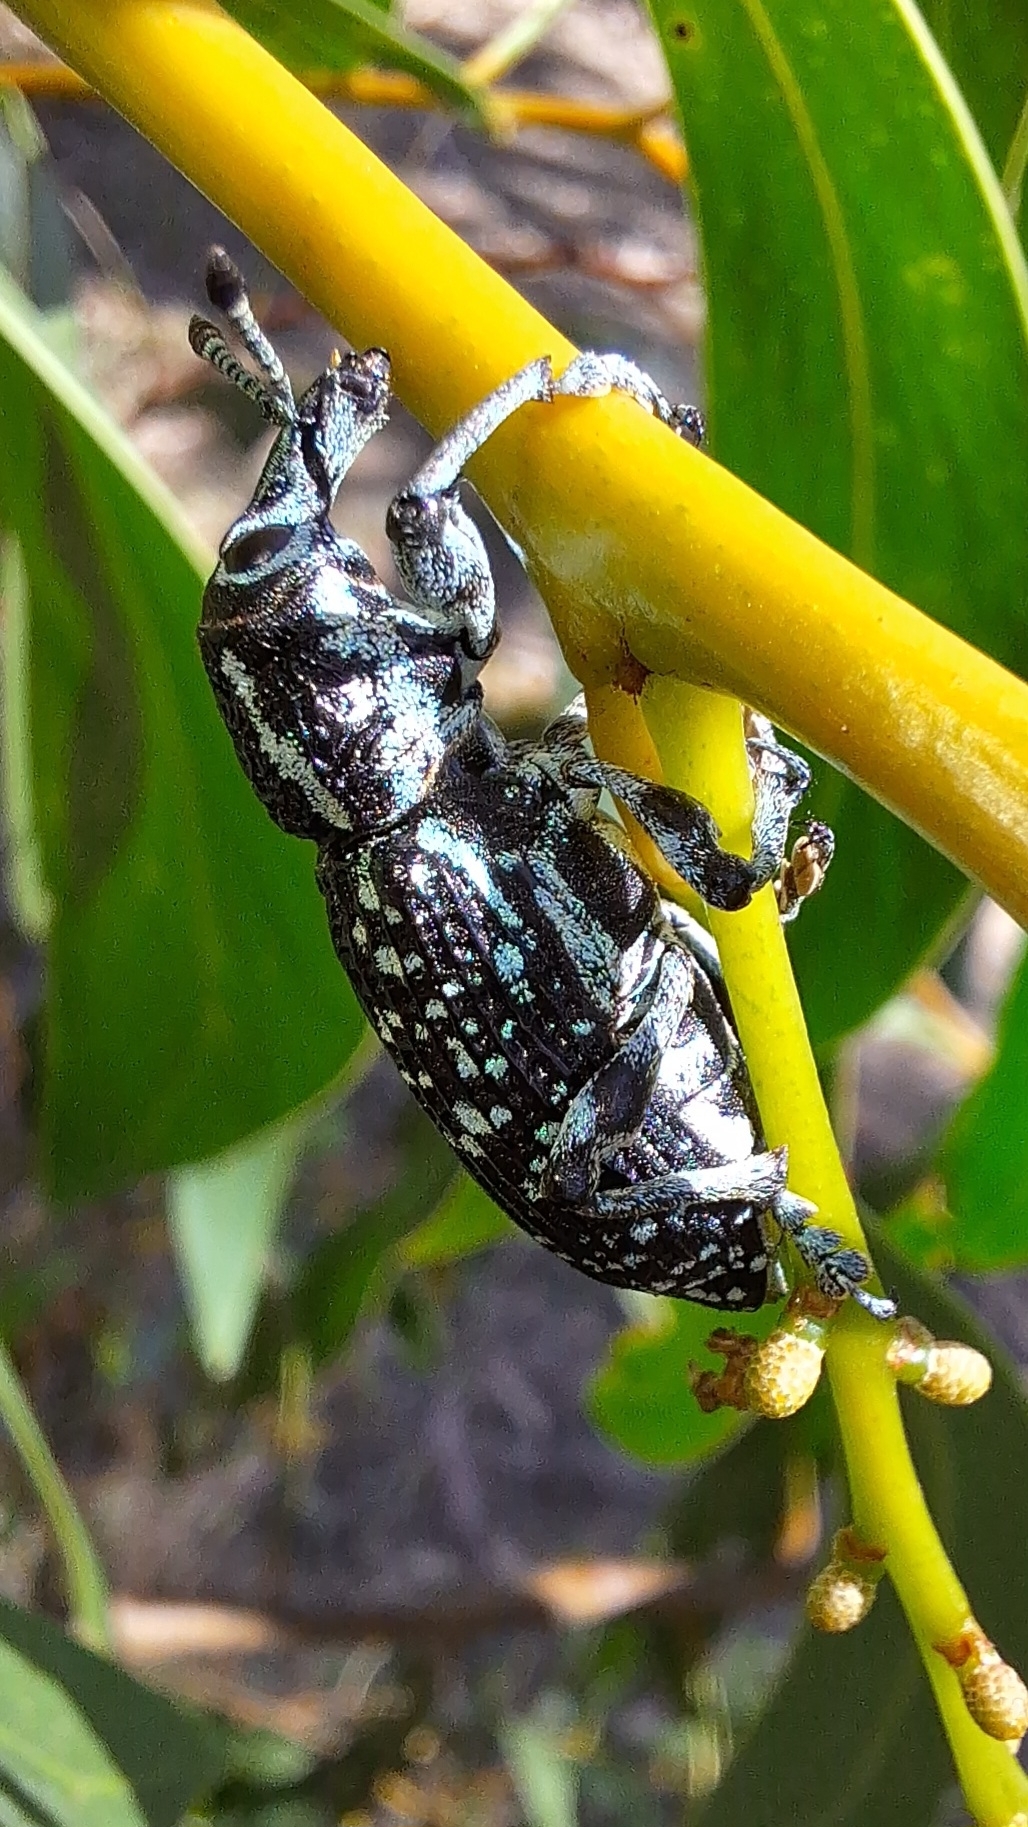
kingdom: Animalia
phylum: Arthropoda
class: Insecta
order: Coleoptera
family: Curculionidae
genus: Chrysolopus
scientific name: Chrysolopus spectabilis
